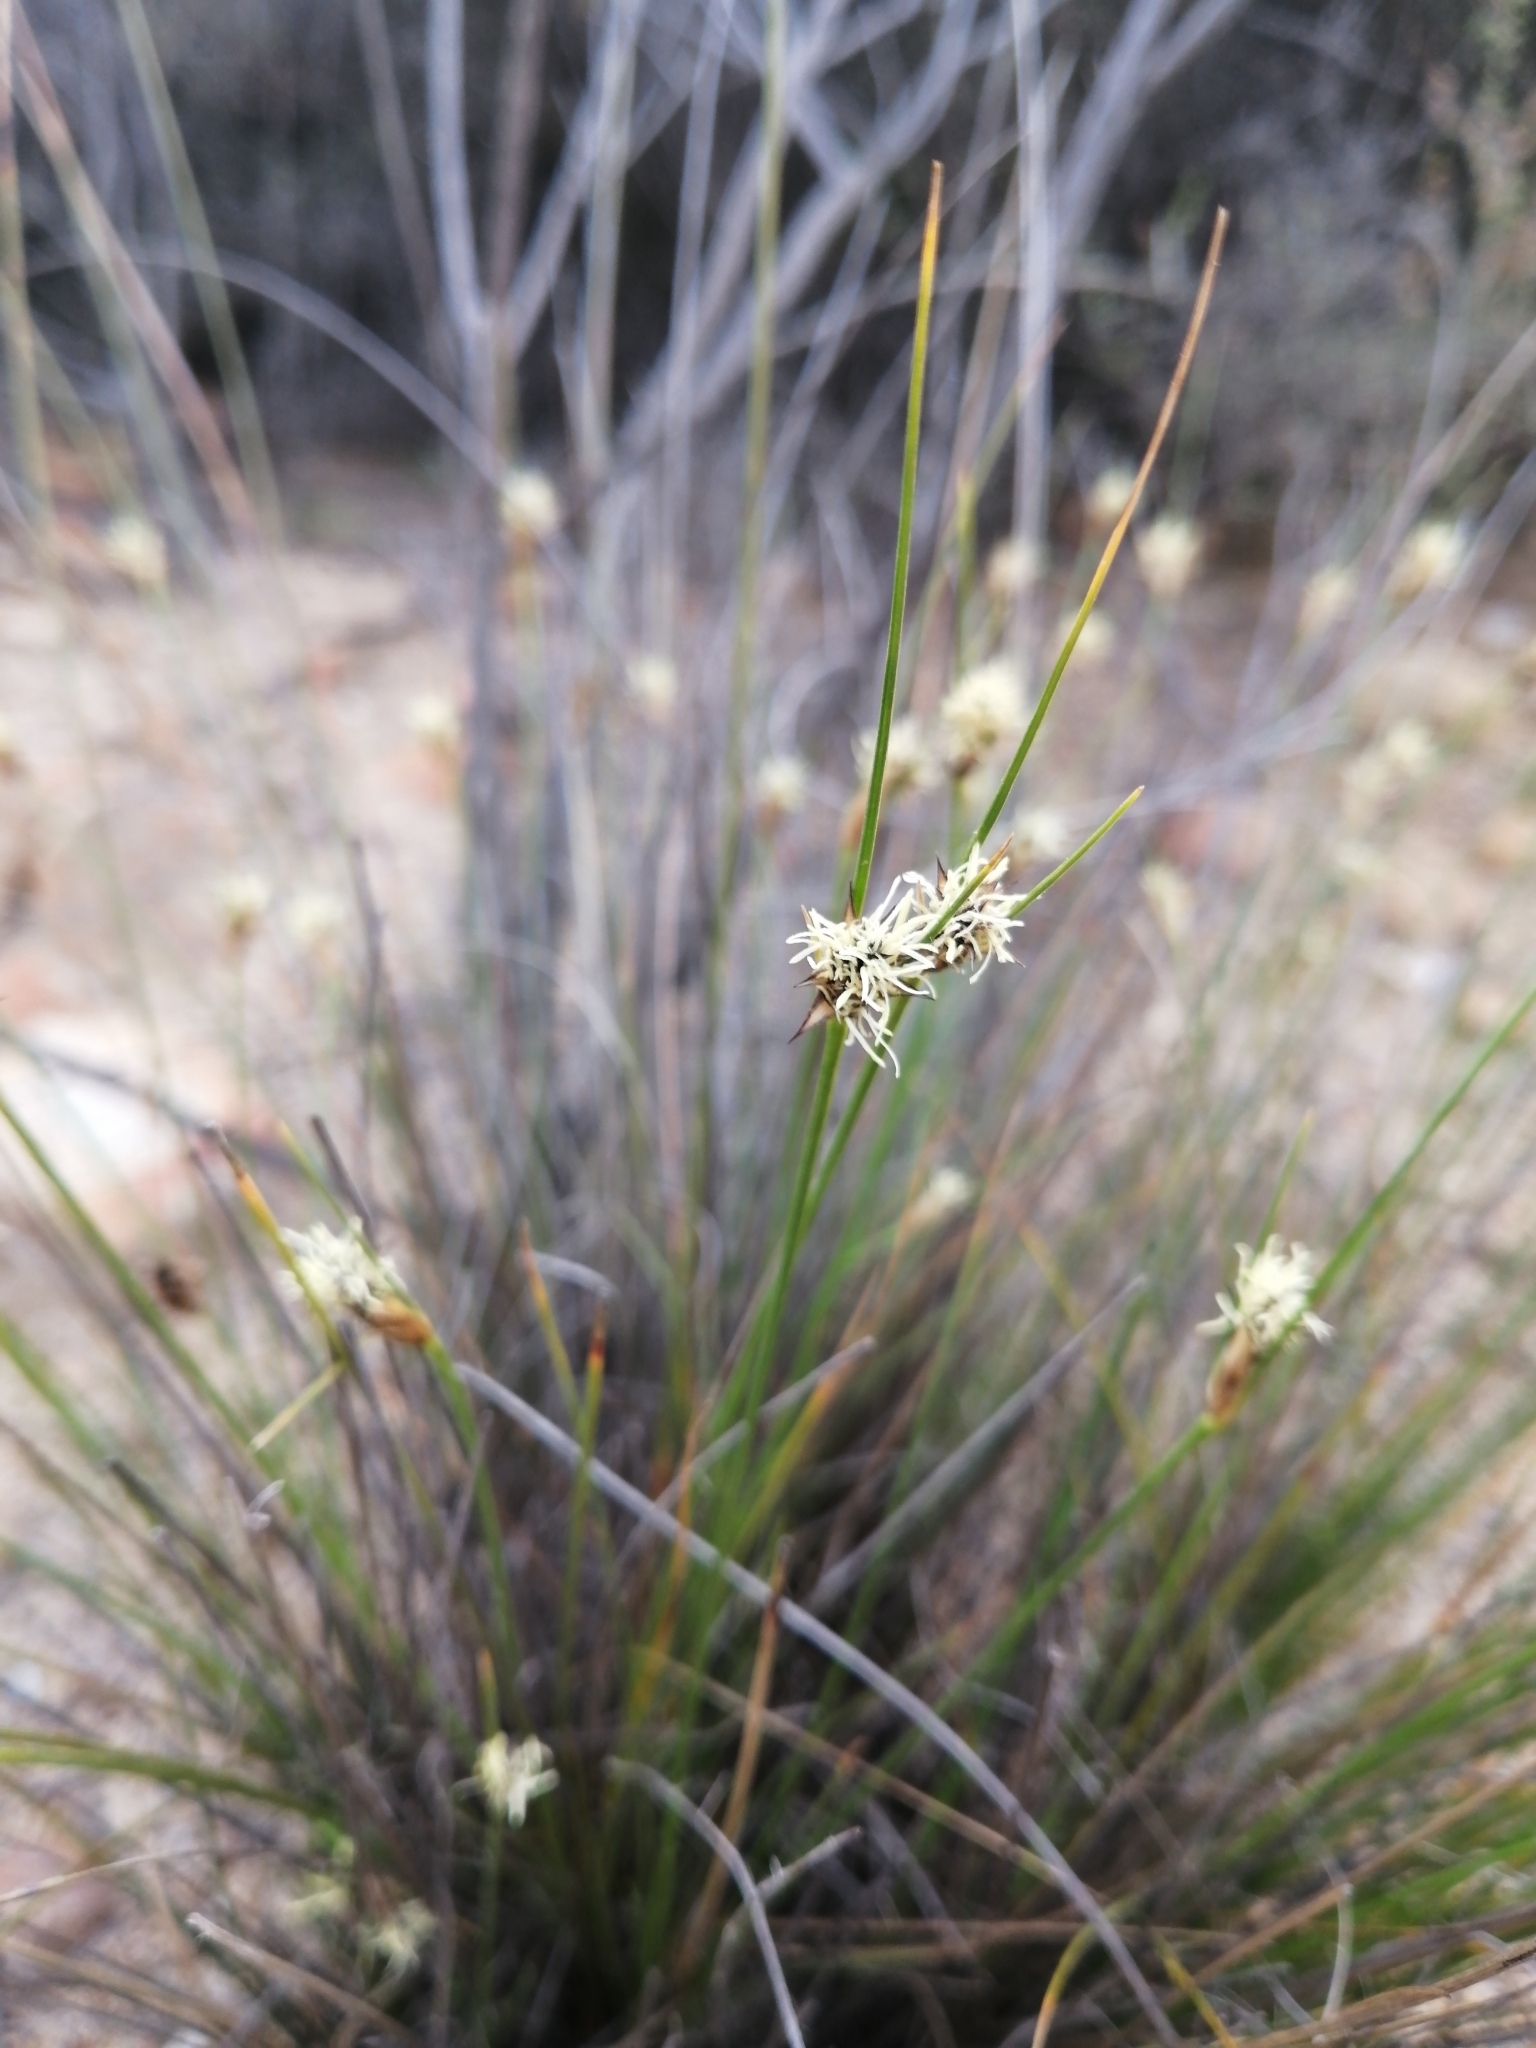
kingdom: Plantae
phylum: Tracheophyta
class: Liliopsida
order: Poales
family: Cyperaceae
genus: Ficinia
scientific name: Ficinia nigrescens
